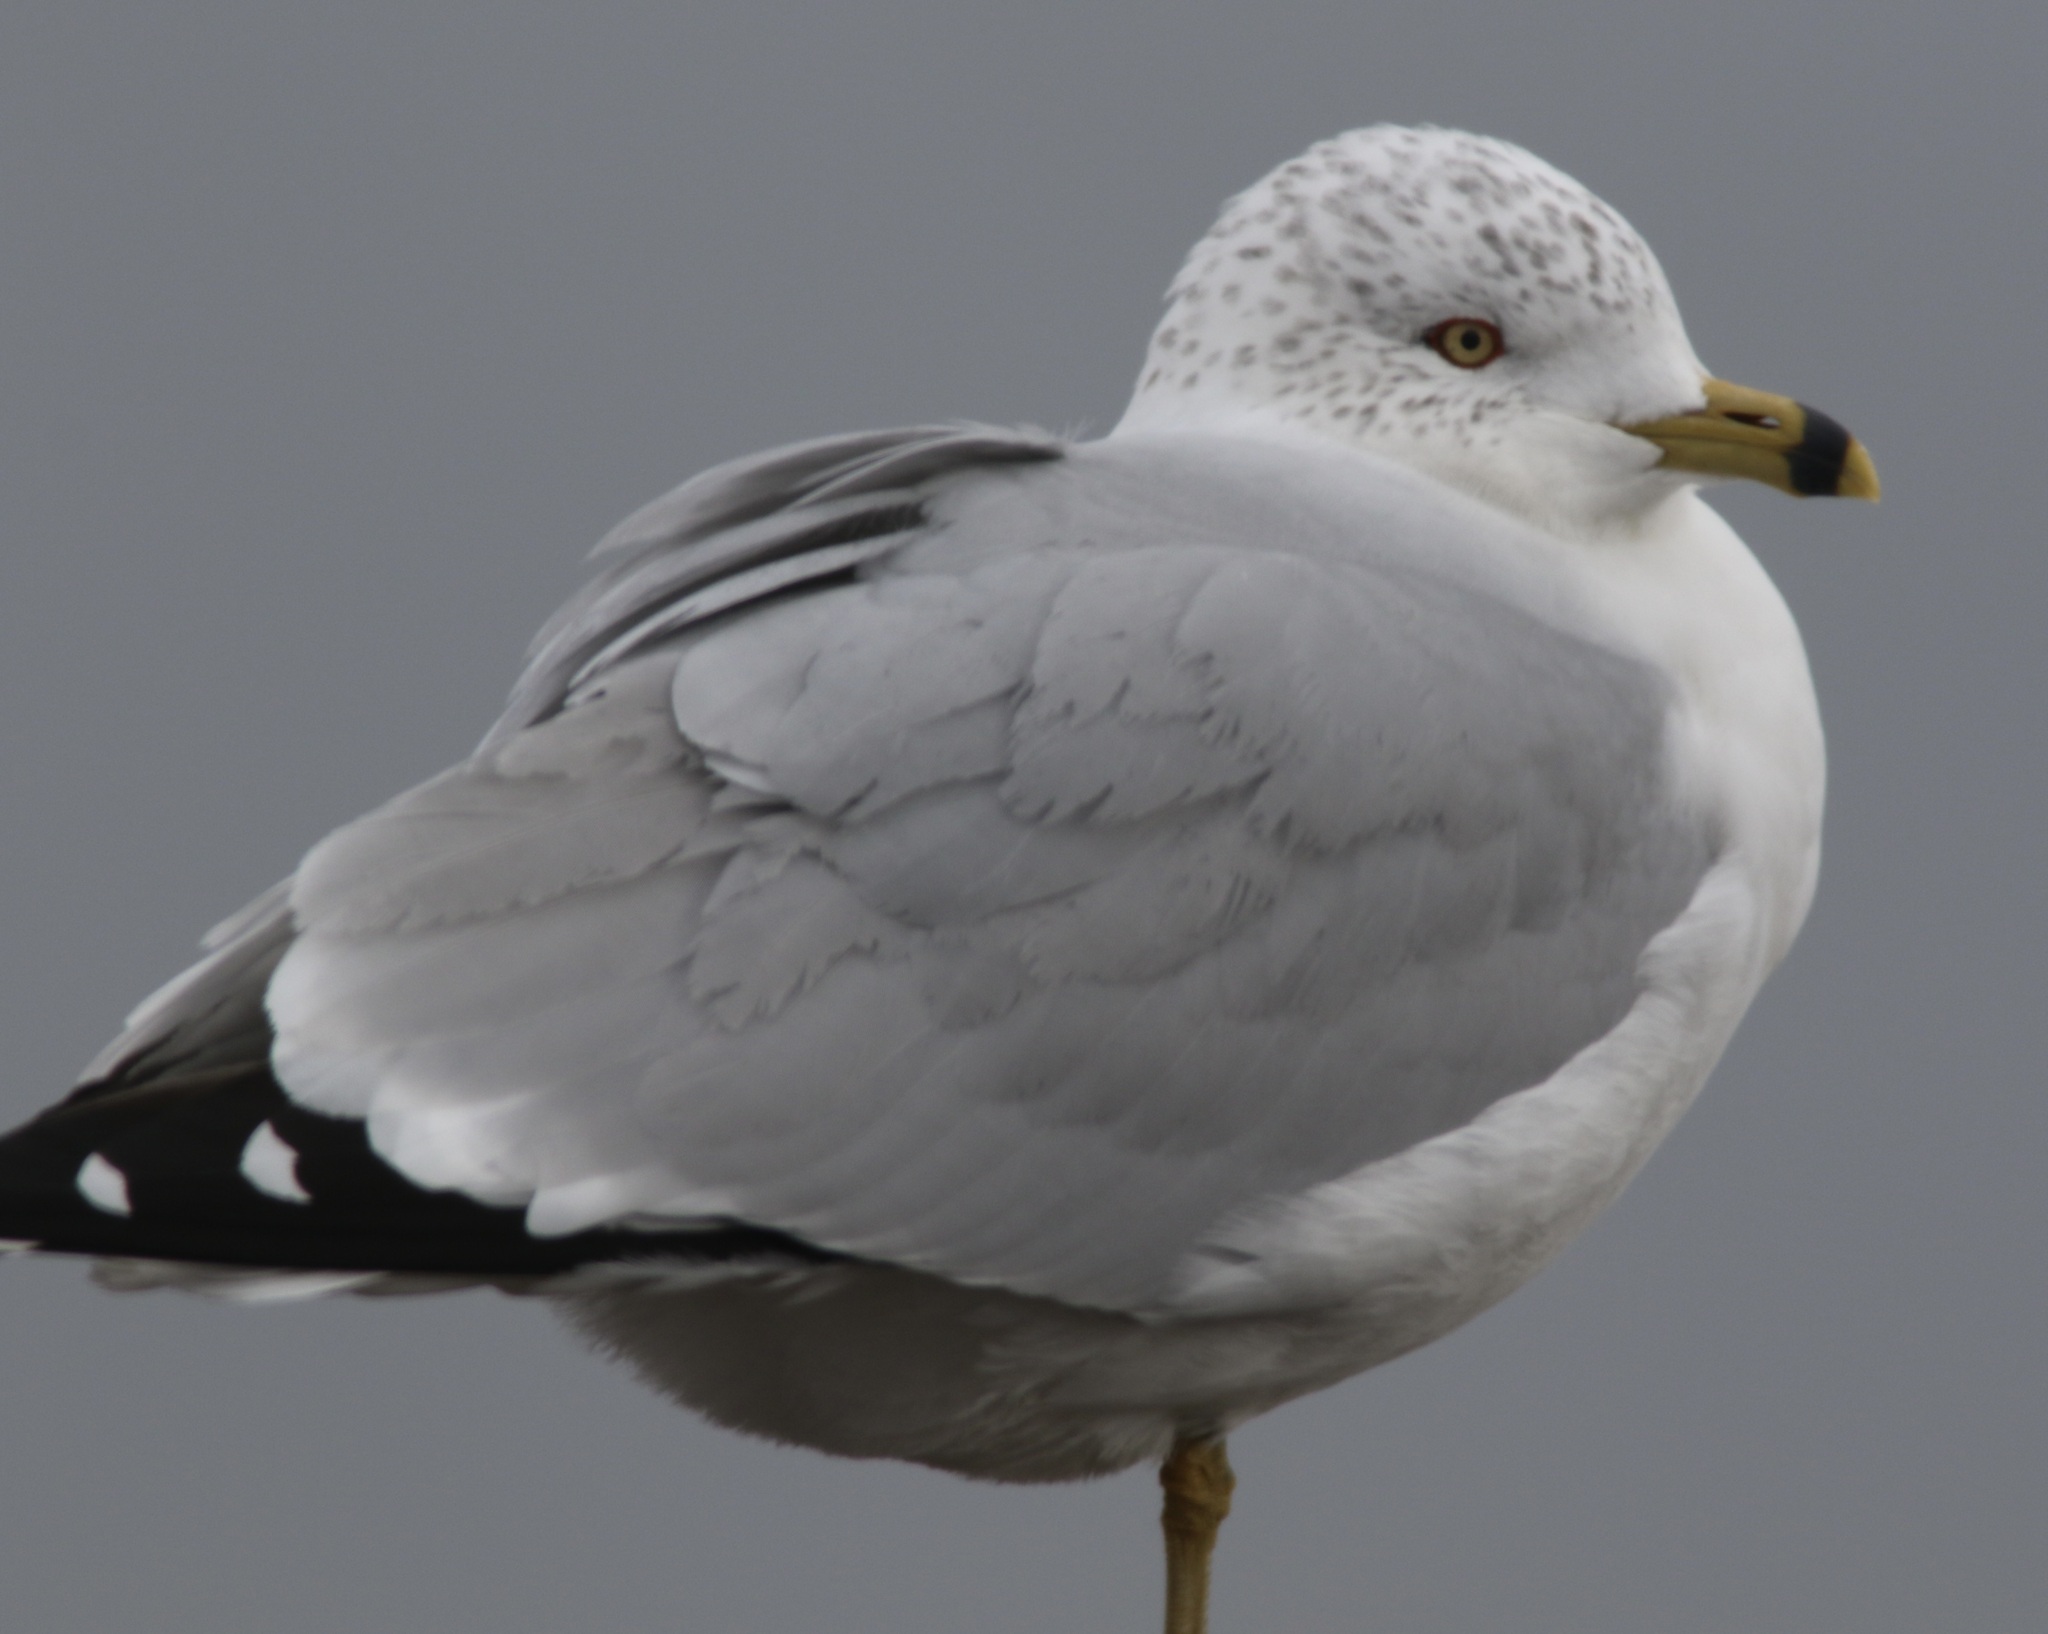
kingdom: Animalia
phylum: Chordata
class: Aves
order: Charadriiformes
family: Laridae
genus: Larus
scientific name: Larus delawarensis
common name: Ring-billed gull
